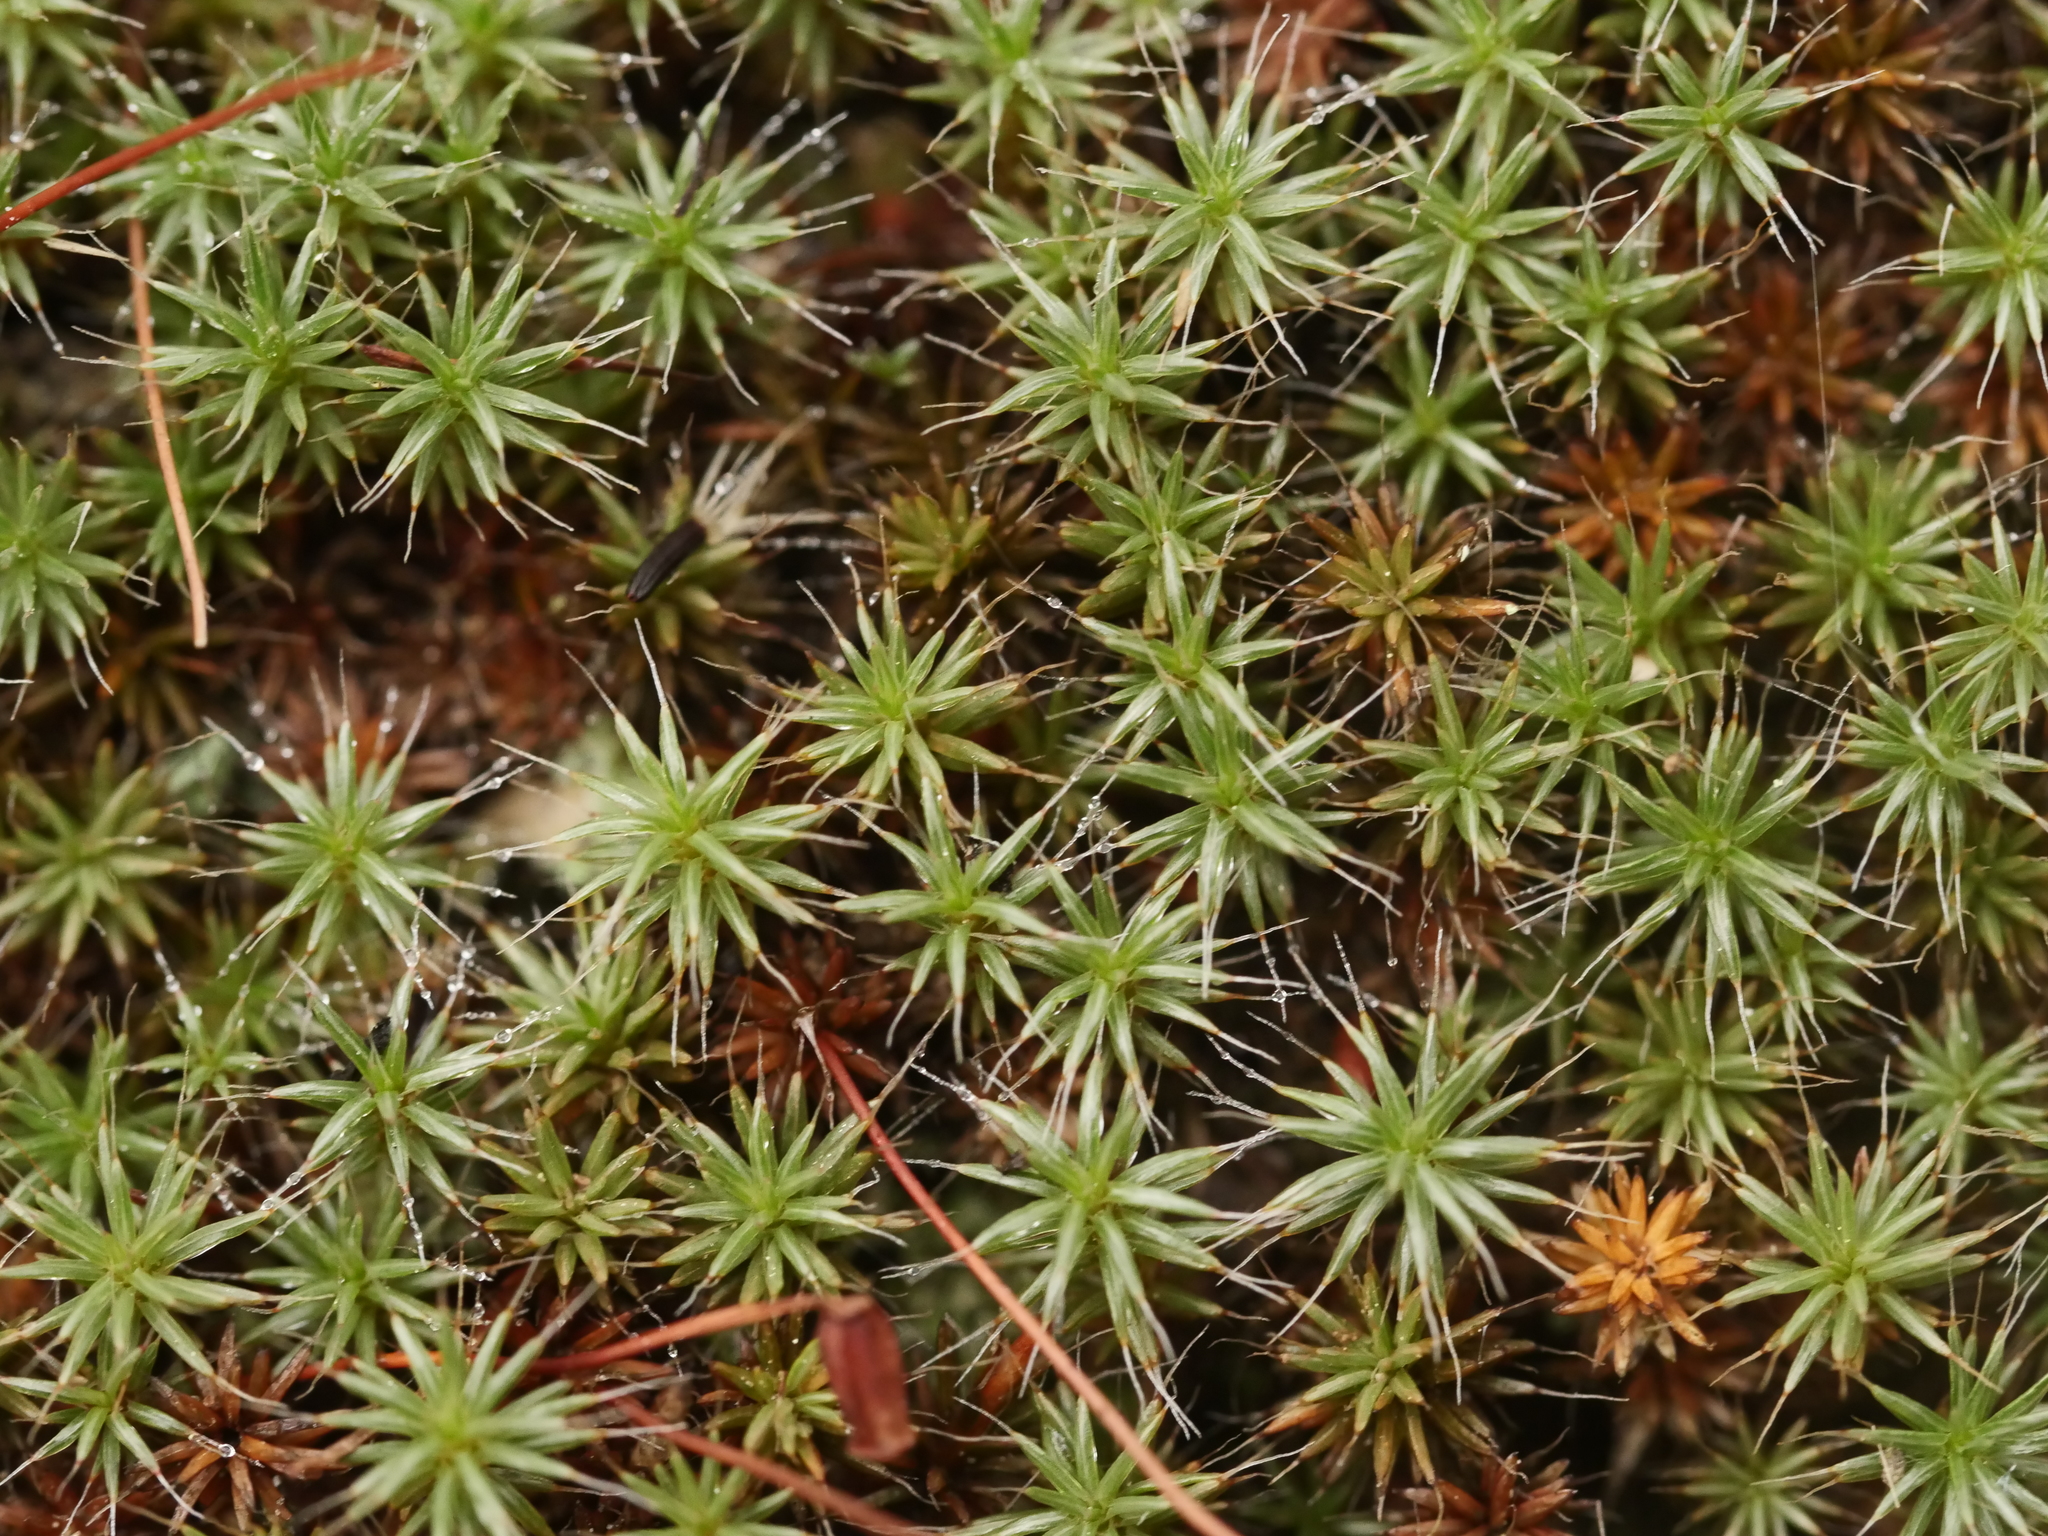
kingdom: Plantae
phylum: Bryophyta
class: Polytrichopsida
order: Polytrichales
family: Polytrichaceae
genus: Polytrichum
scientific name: Polytrichum piliferum
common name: Bristly haircap
